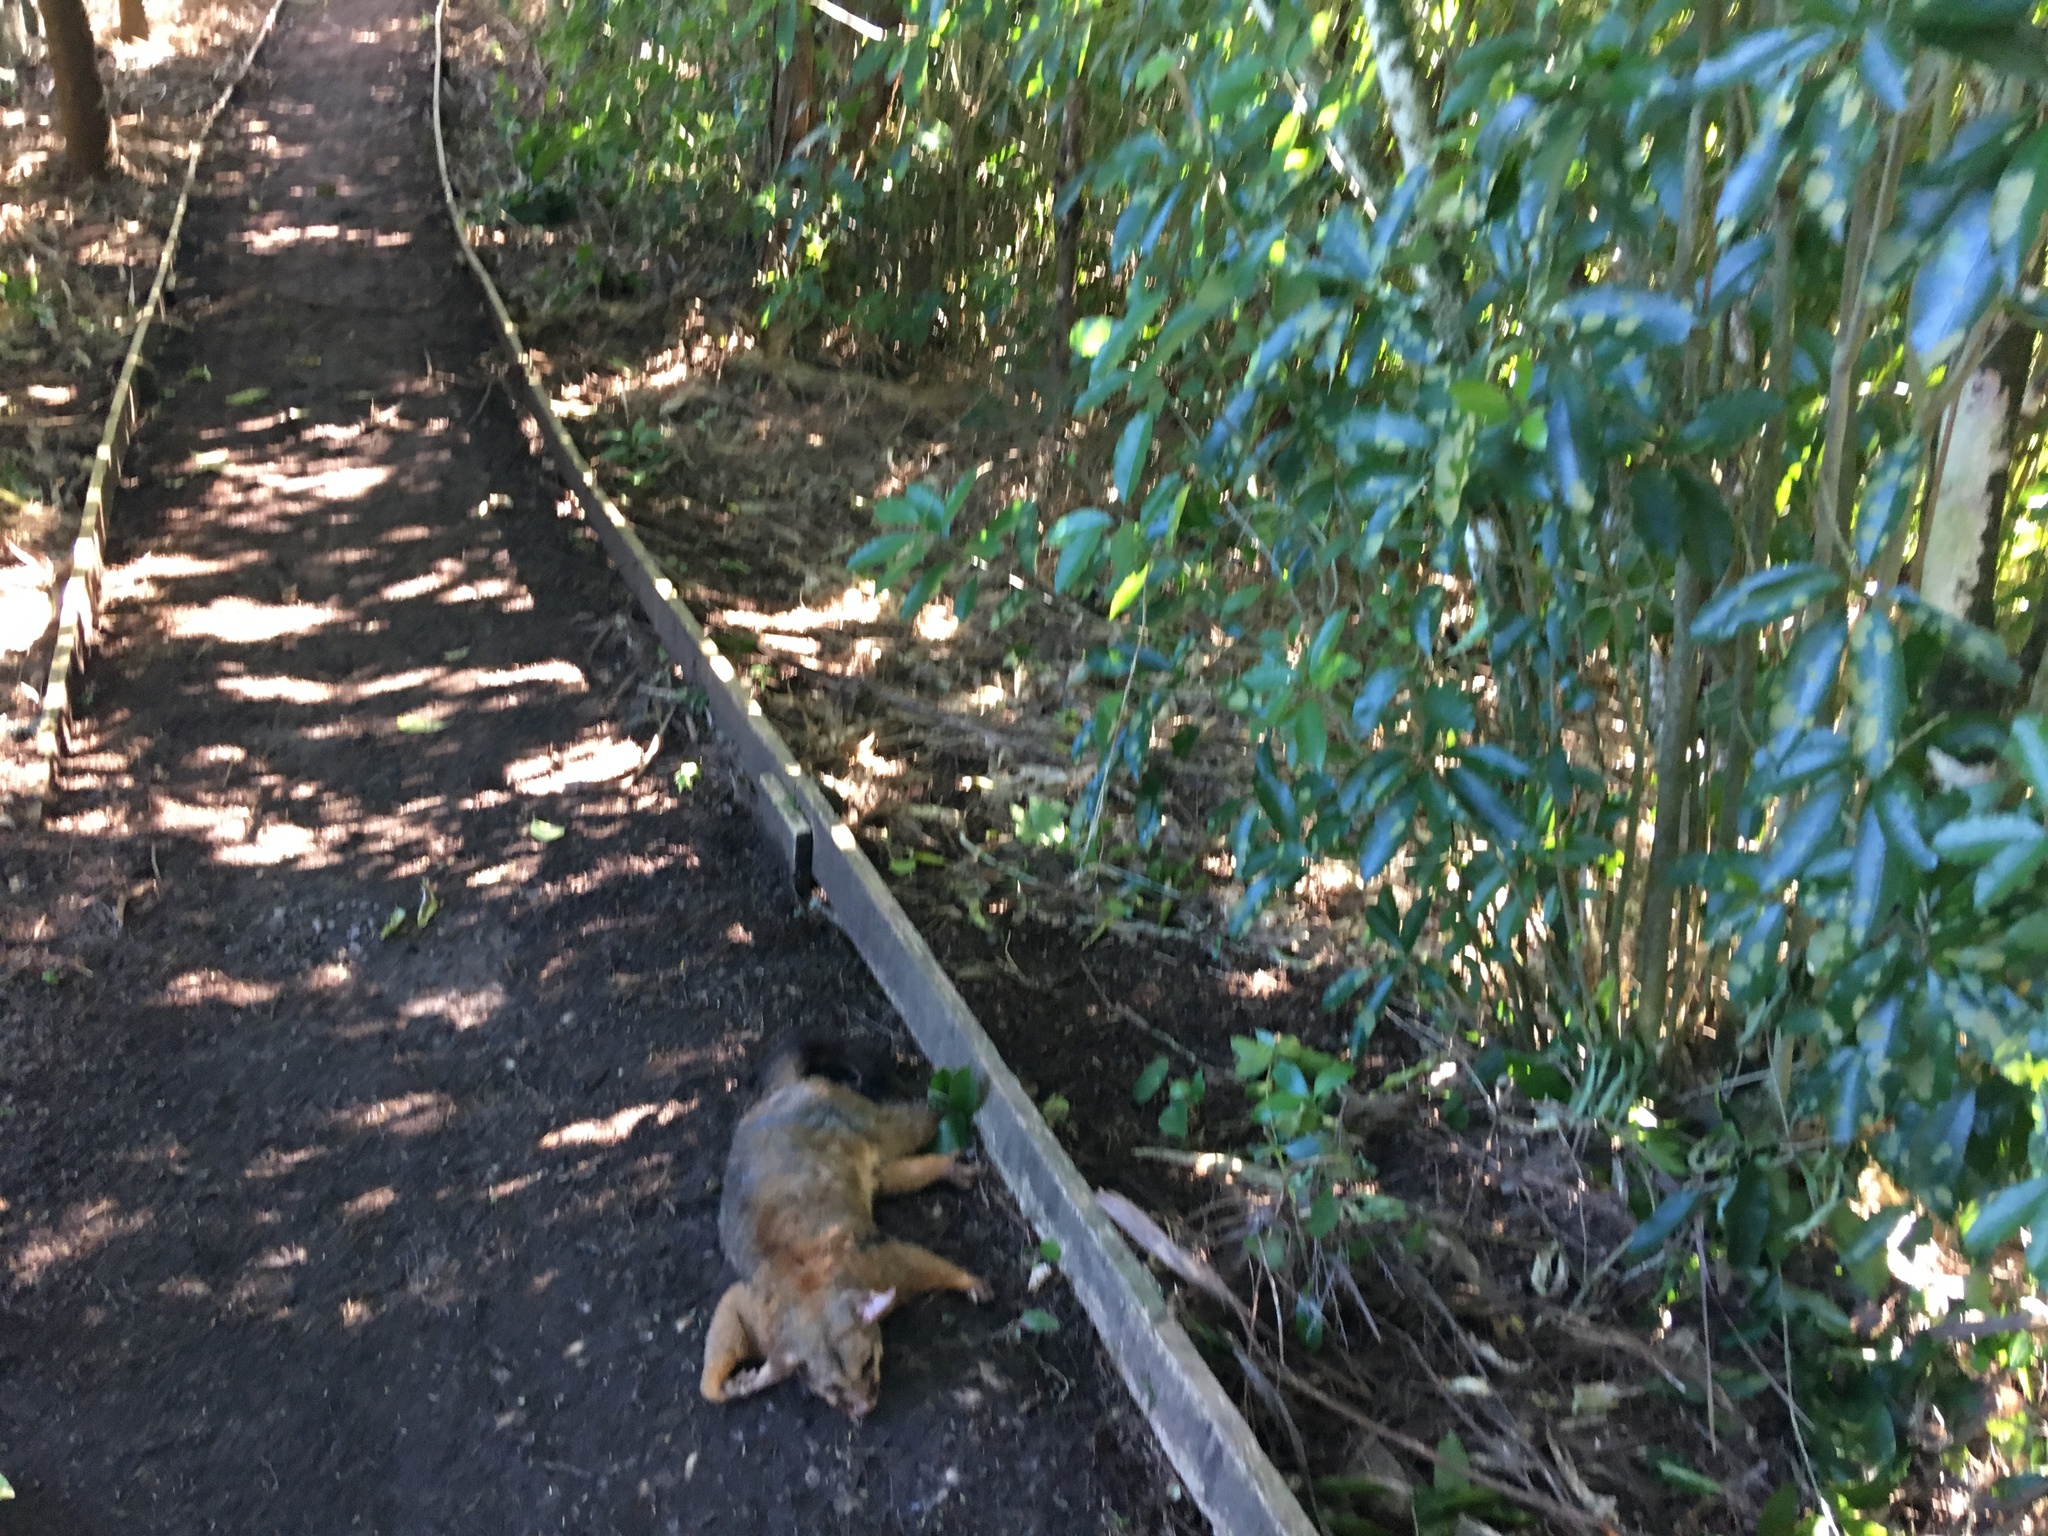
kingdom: Animalia
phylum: Chordata
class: Mammalia
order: Diprotodontia
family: Phalangeridae
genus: Trichosurus
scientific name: Trichosurus vulpecula
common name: Common brushtail
